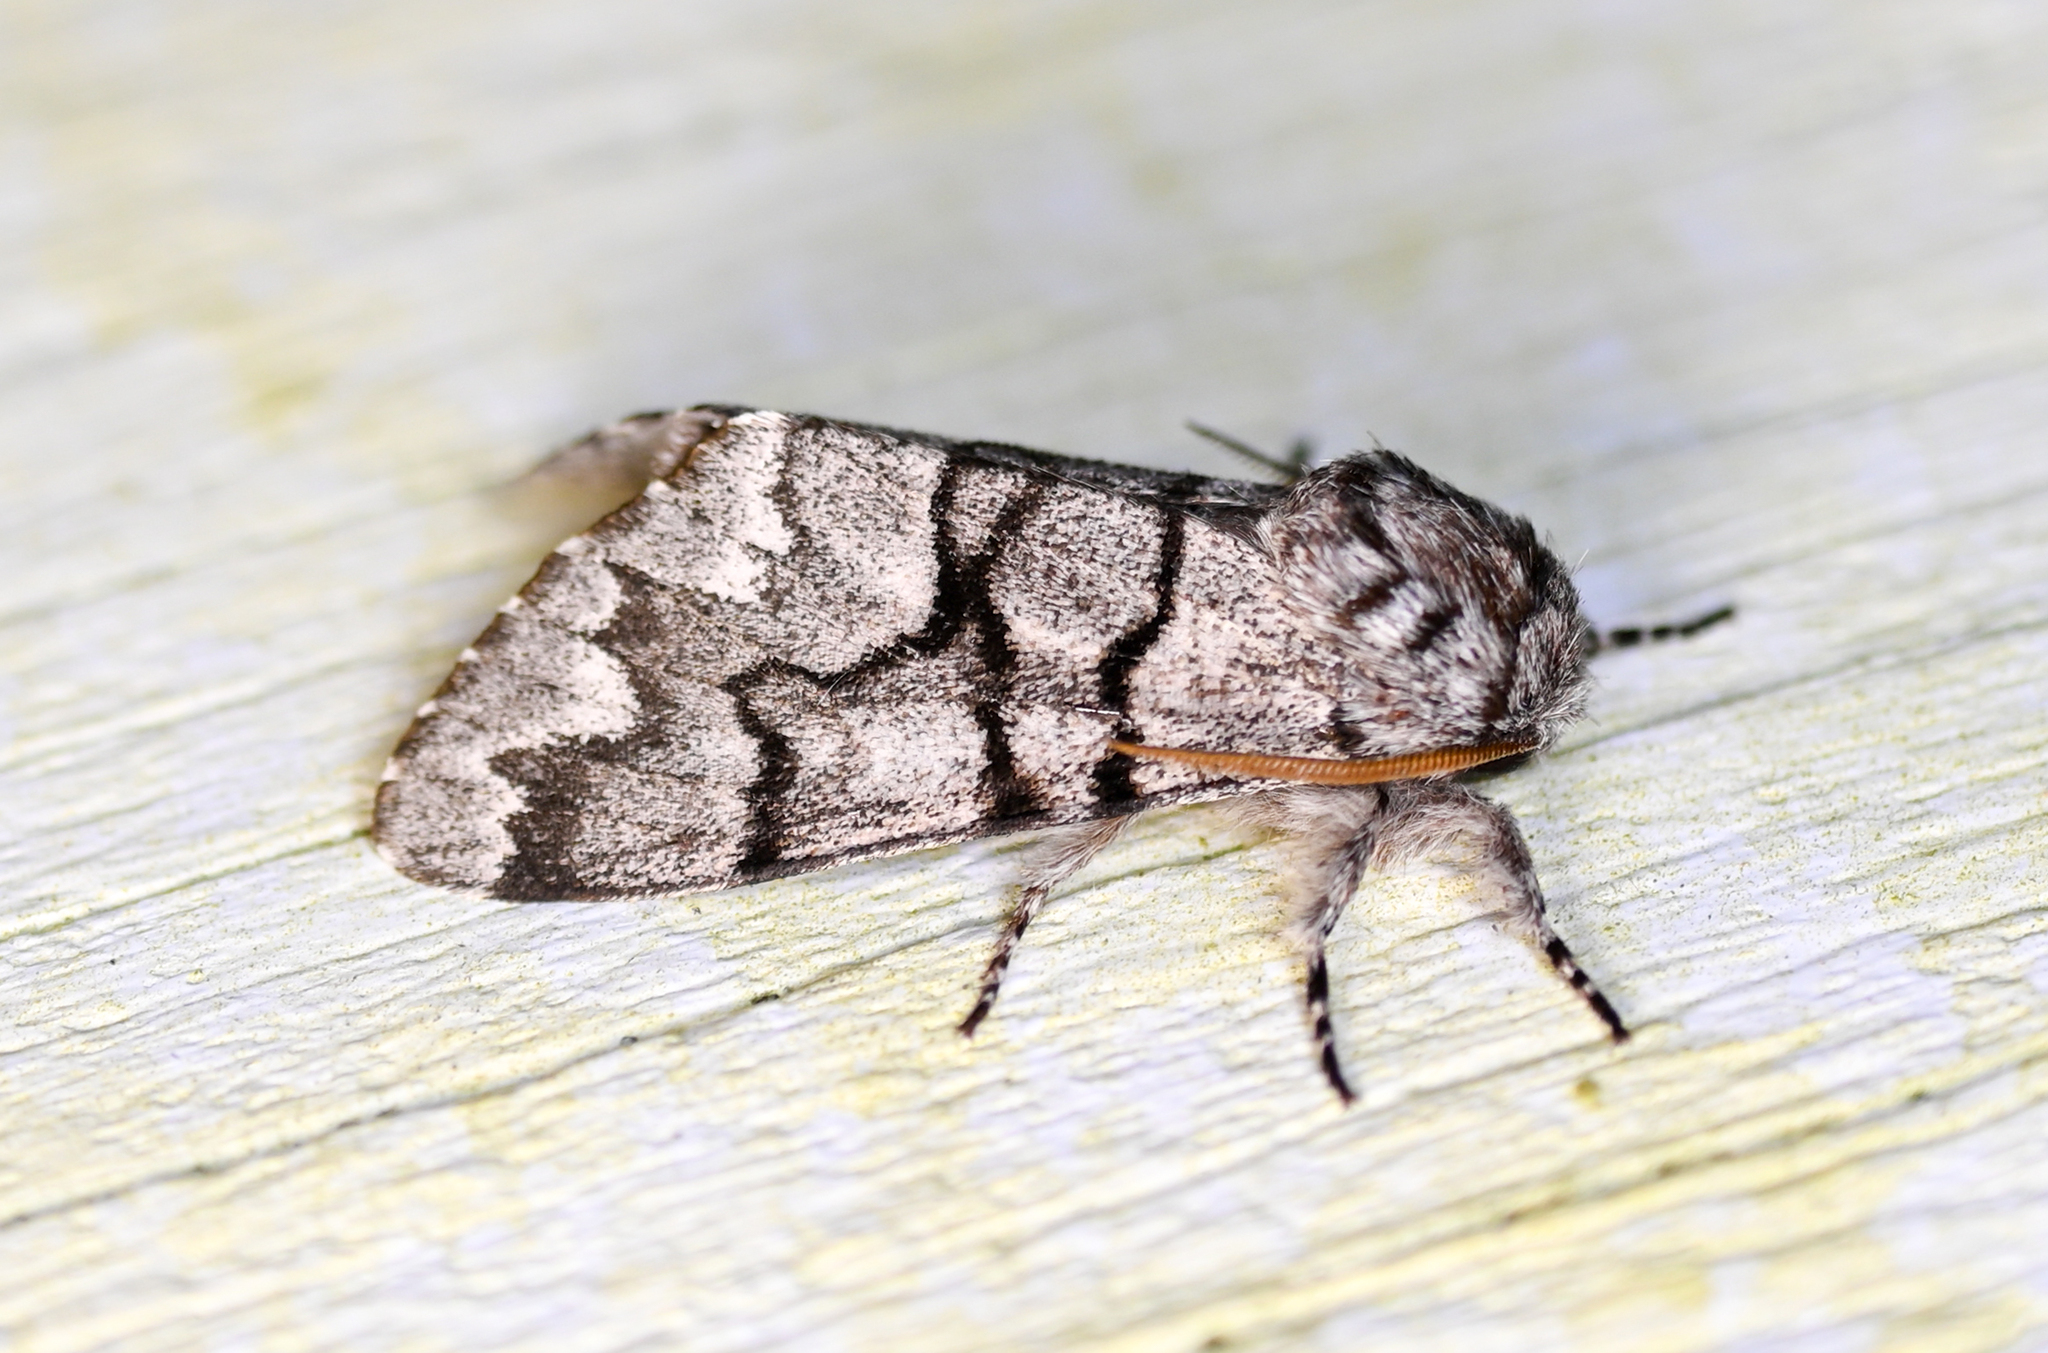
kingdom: Animalia
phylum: Arthropoda
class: Insecta
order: Lepidoptera
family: Noctuidae
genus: Panthea
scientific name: Panthea furcilla
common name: Eastern panthea moth
